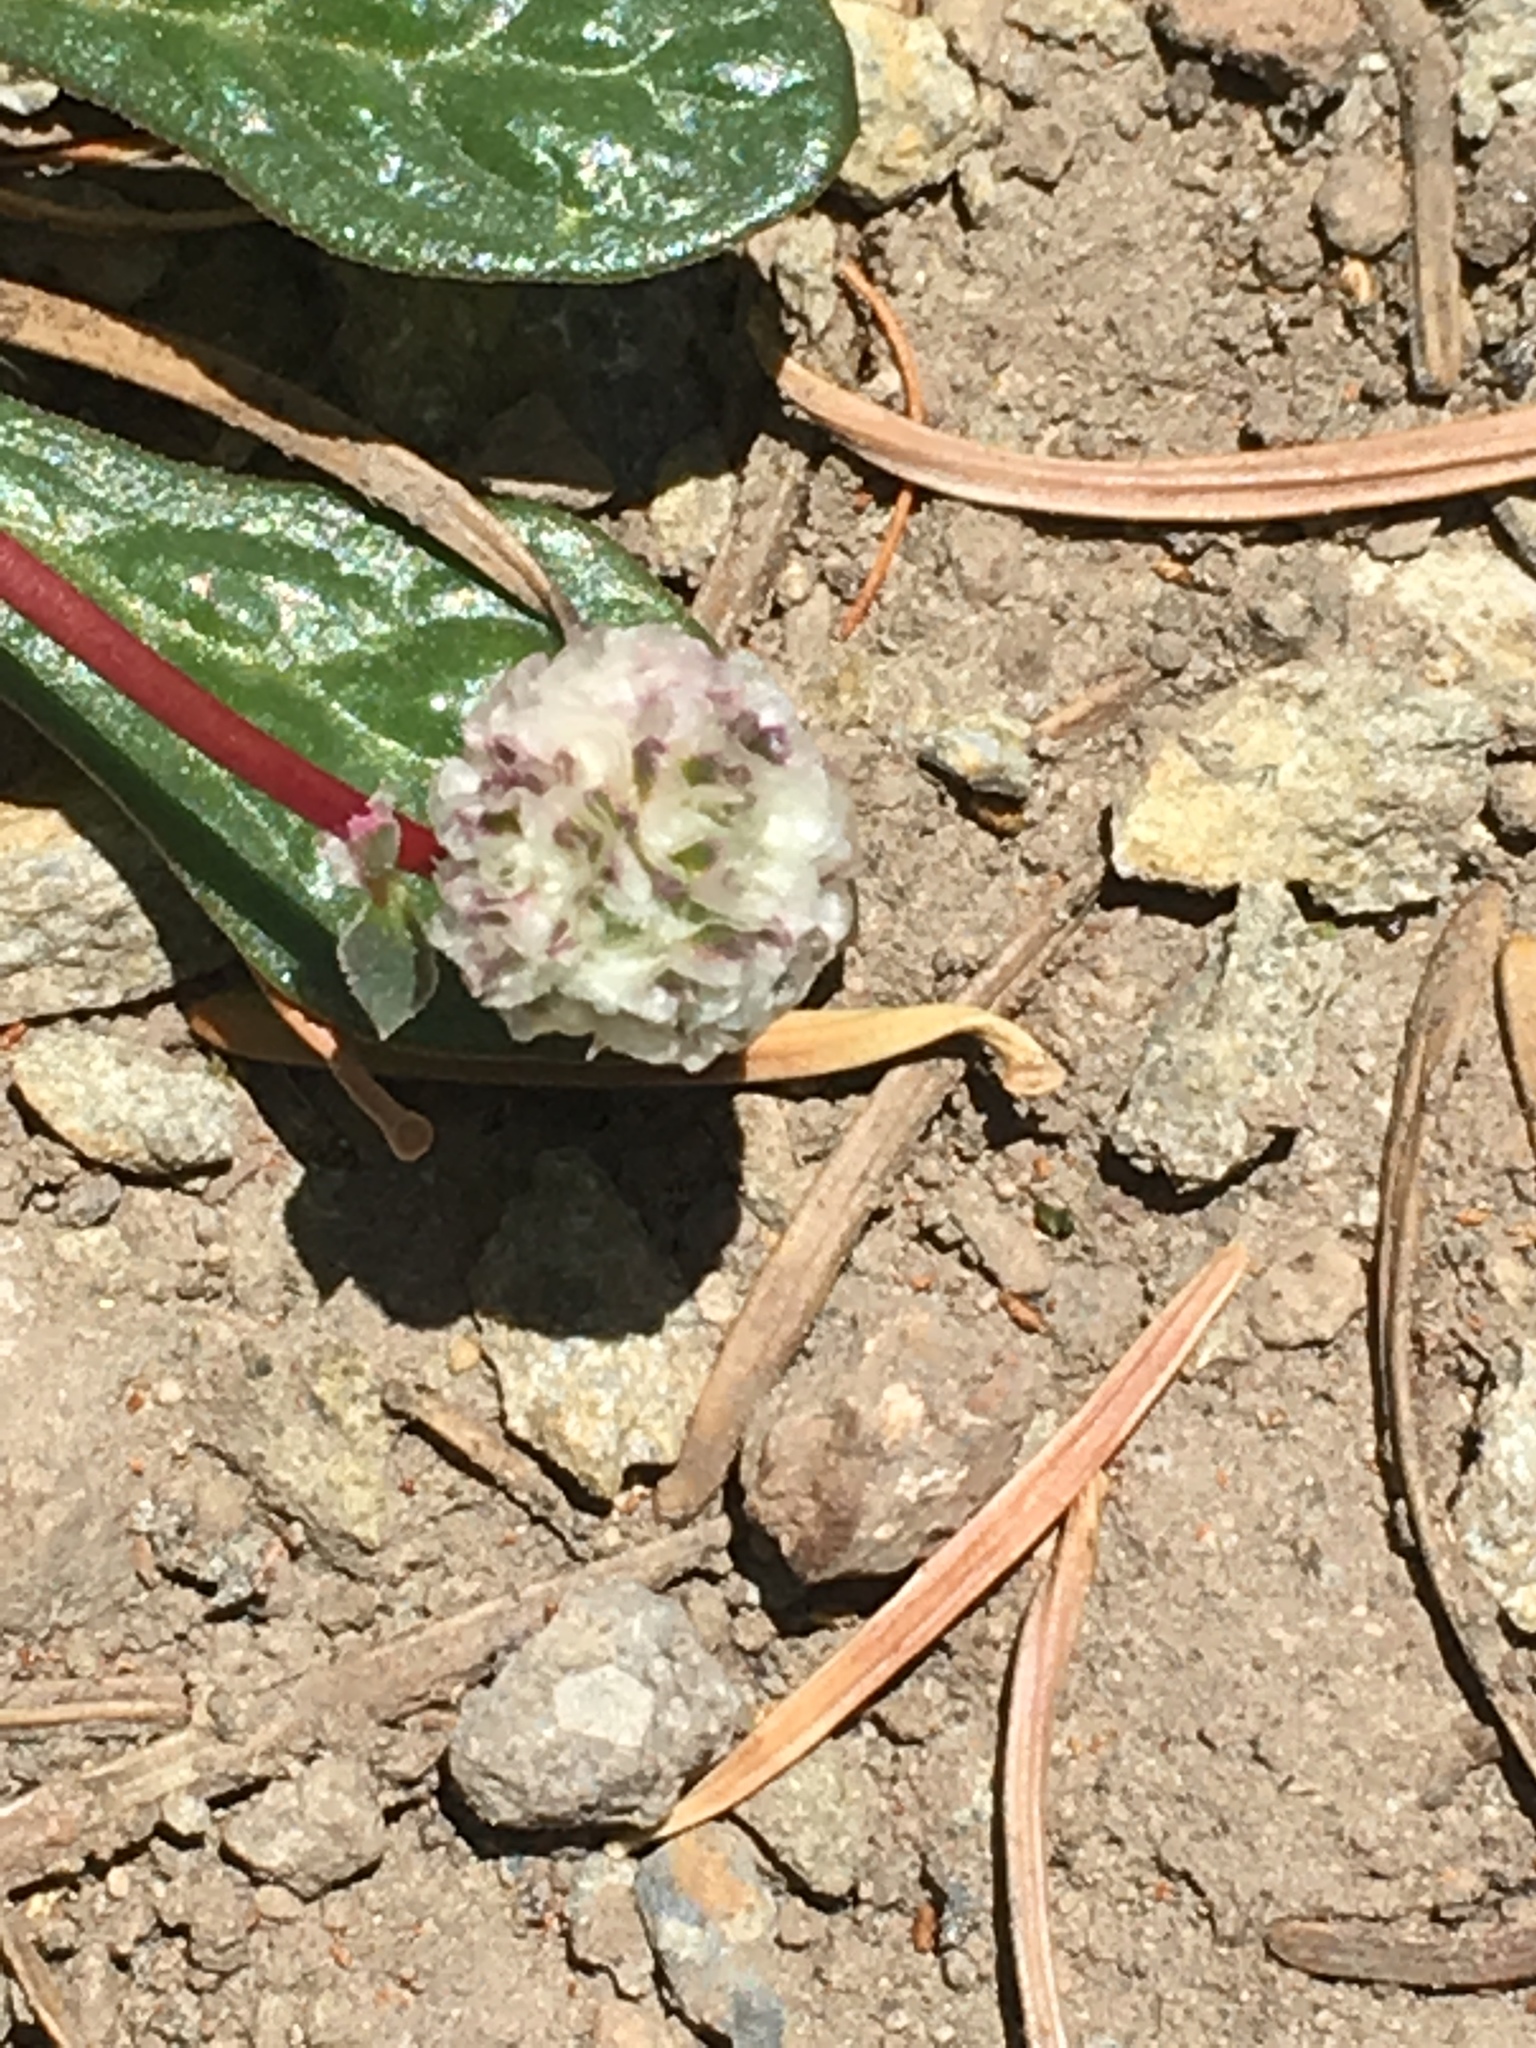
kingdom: Plantae
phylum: Tracheophyta
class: Magnoliopsida
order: Caryophyllales
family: Montiaceae
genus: Calyptridium
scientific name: Calyptridium monospermum
